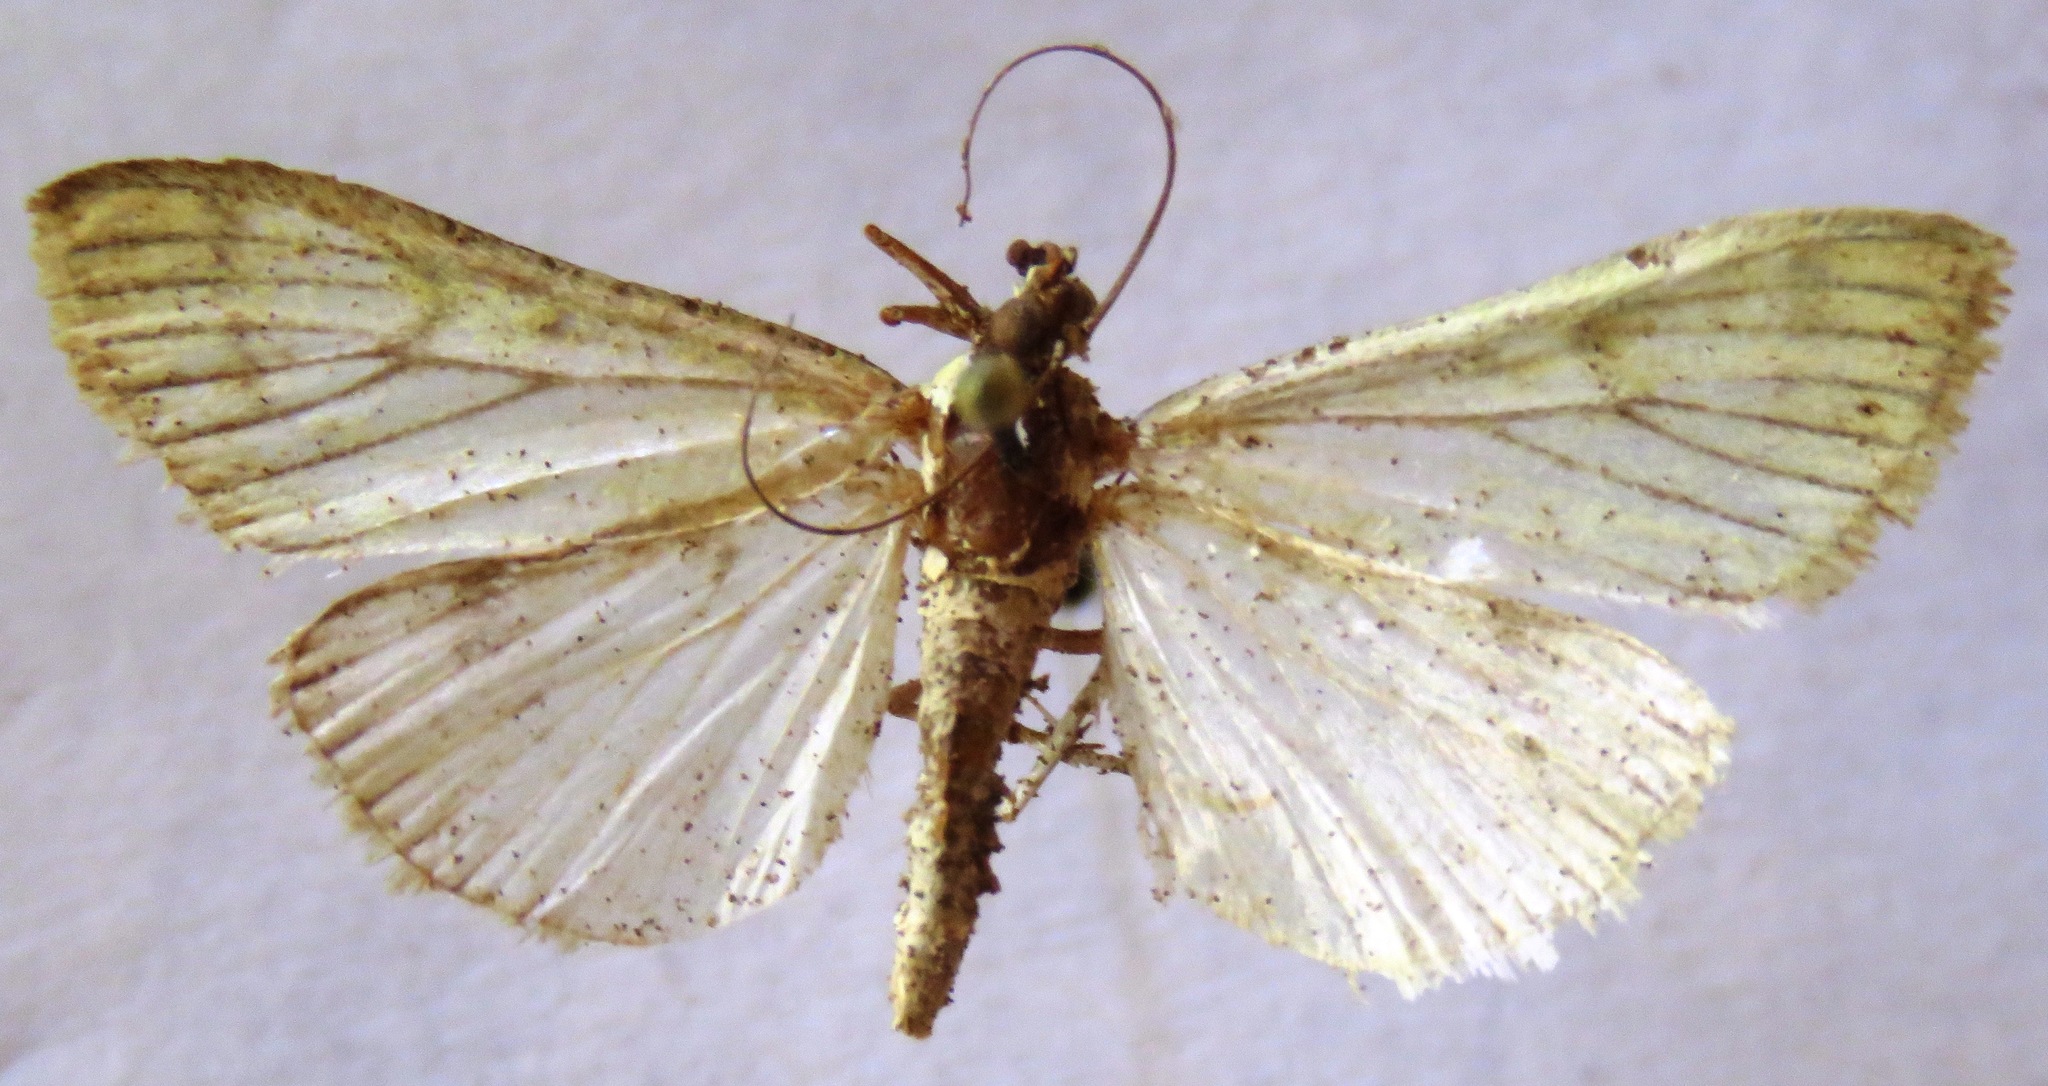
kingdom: Animalia
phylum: Arthropoda
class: Insecta
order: Lepidoptera
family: Crambidae
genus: Sitochroa
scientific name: Sitochroa palealis
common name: Greenish-yellow sitochroa moth
